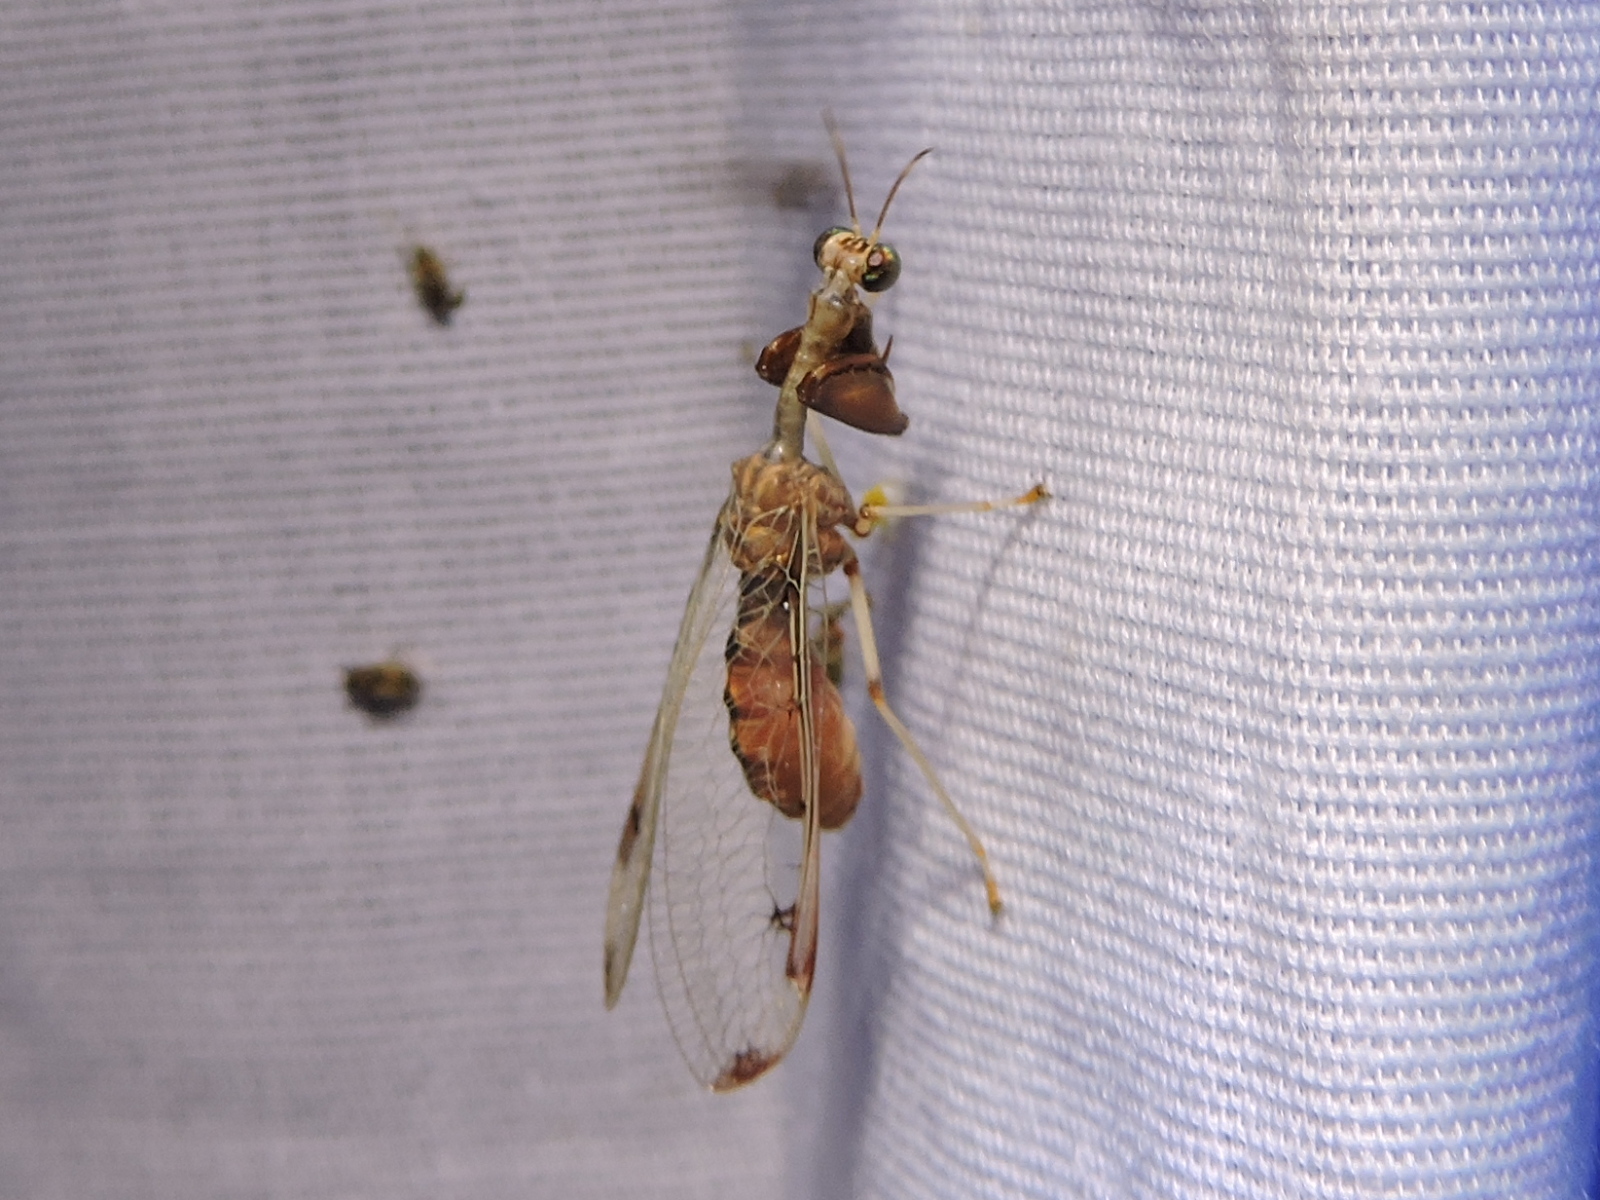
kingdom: Animalia
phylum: Arthropoda
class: Insecta
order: Neuroptera
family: Mantispidae
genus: Dicromantispa
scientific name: Dicromantispa interrupta
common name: Four-spotted mantidfly
